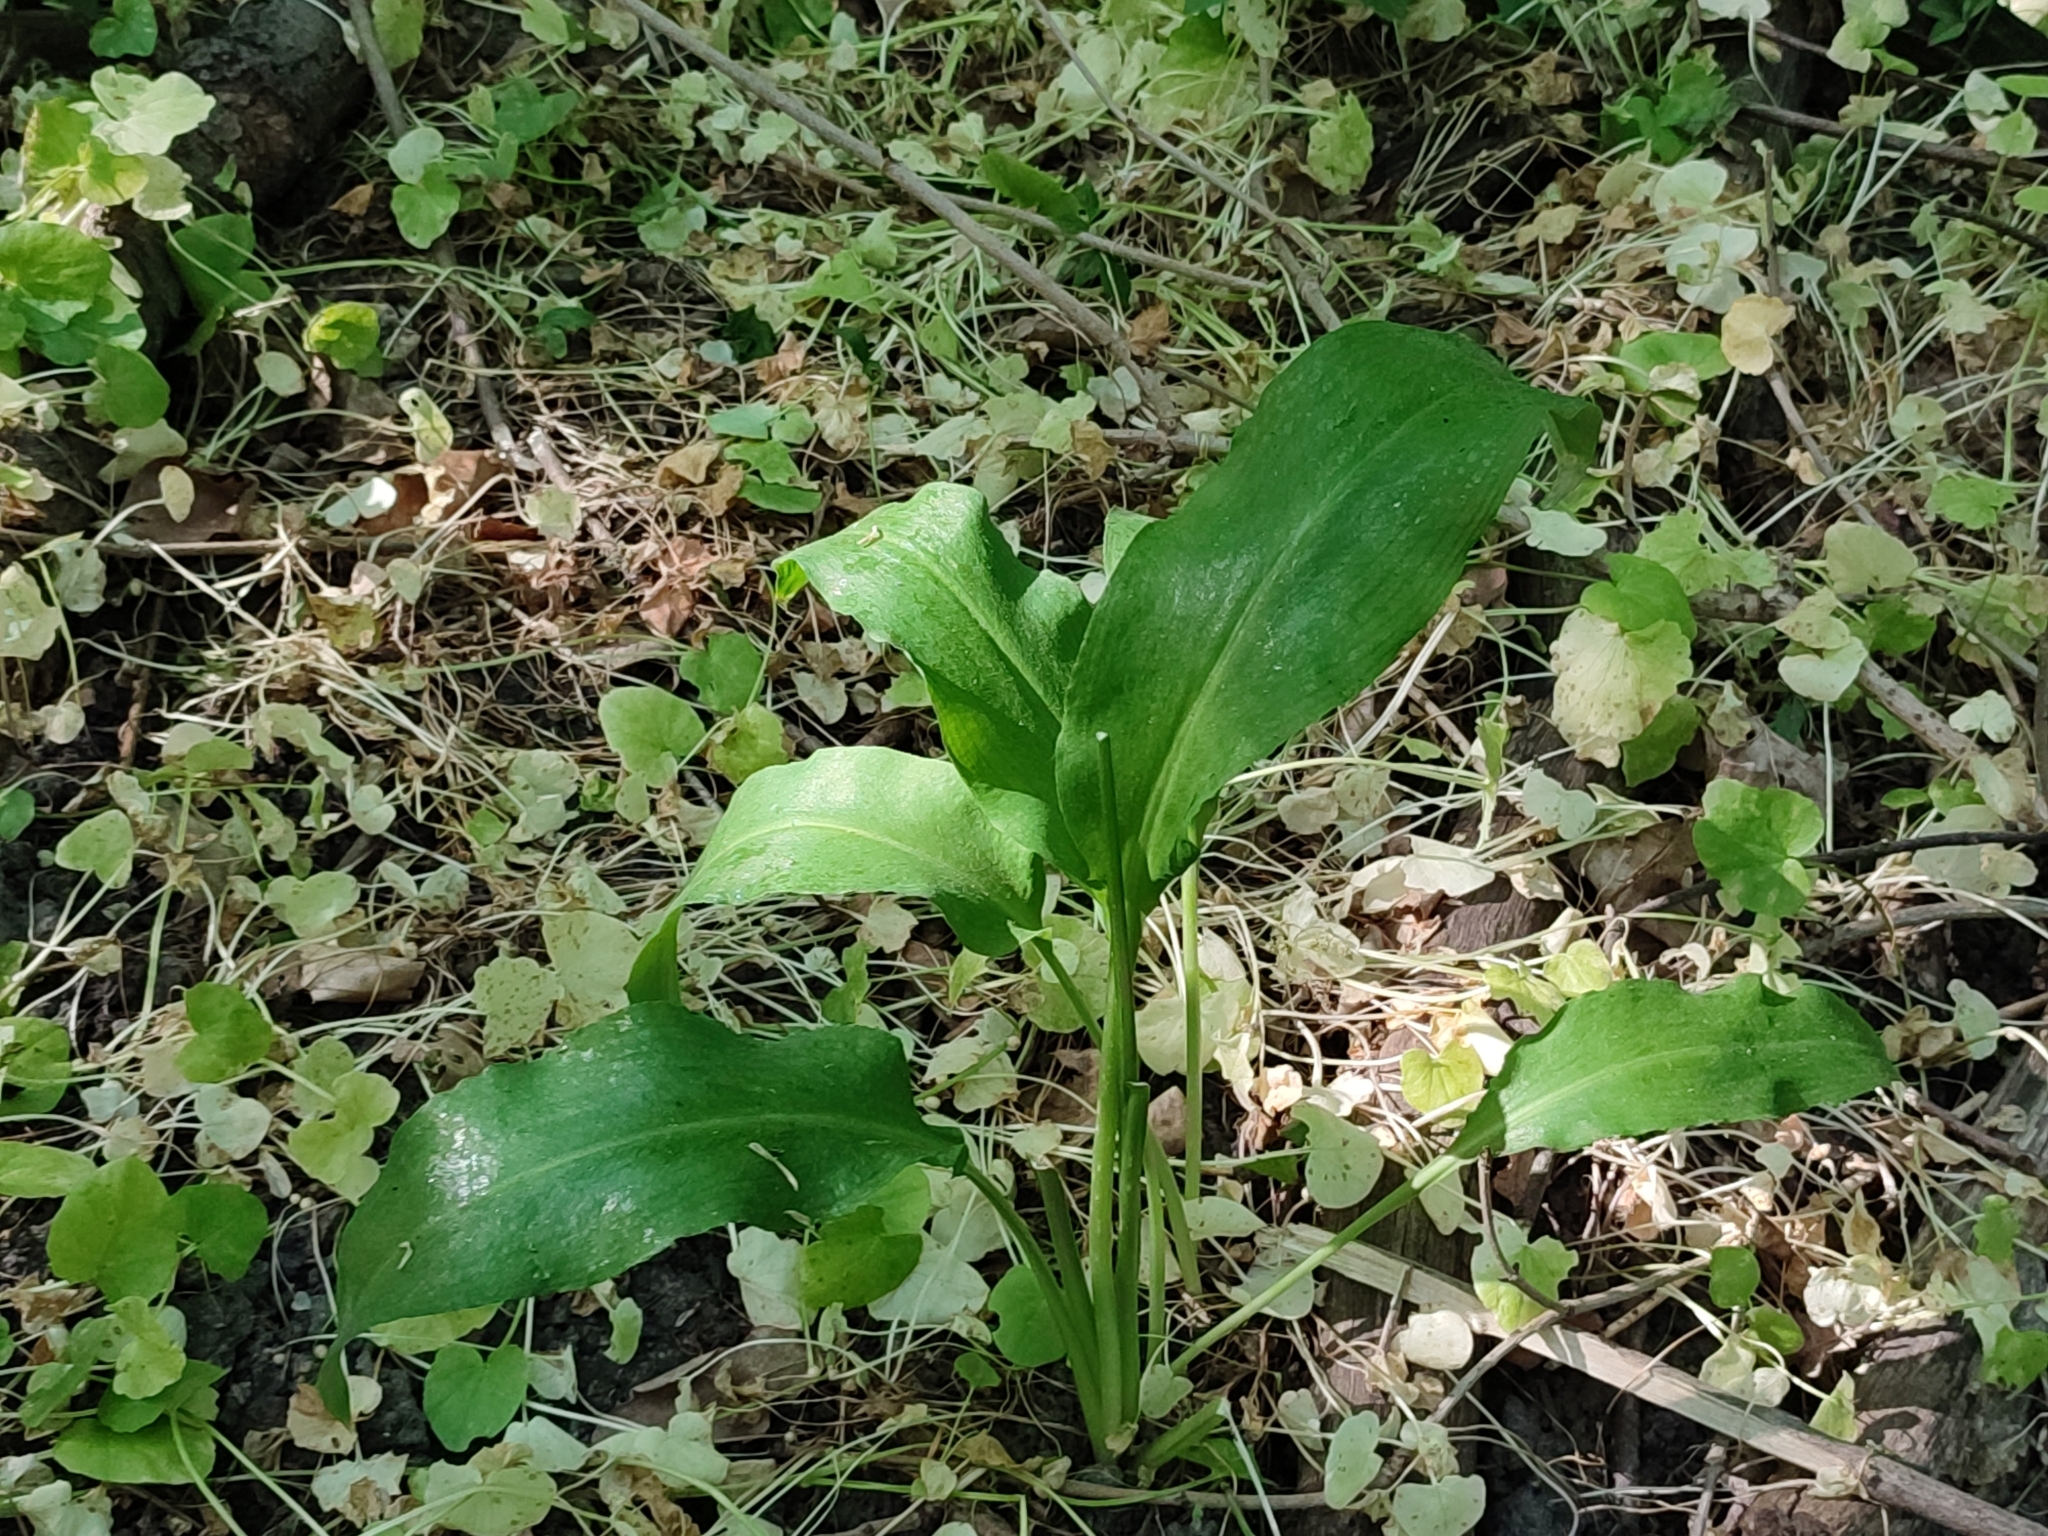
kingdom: Plantae
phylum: Tracheophyta
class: Liliopsida
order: Asparagales
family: Amaryllidaceae
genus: Allium
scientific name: Allium ursinum
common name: Ramsons
